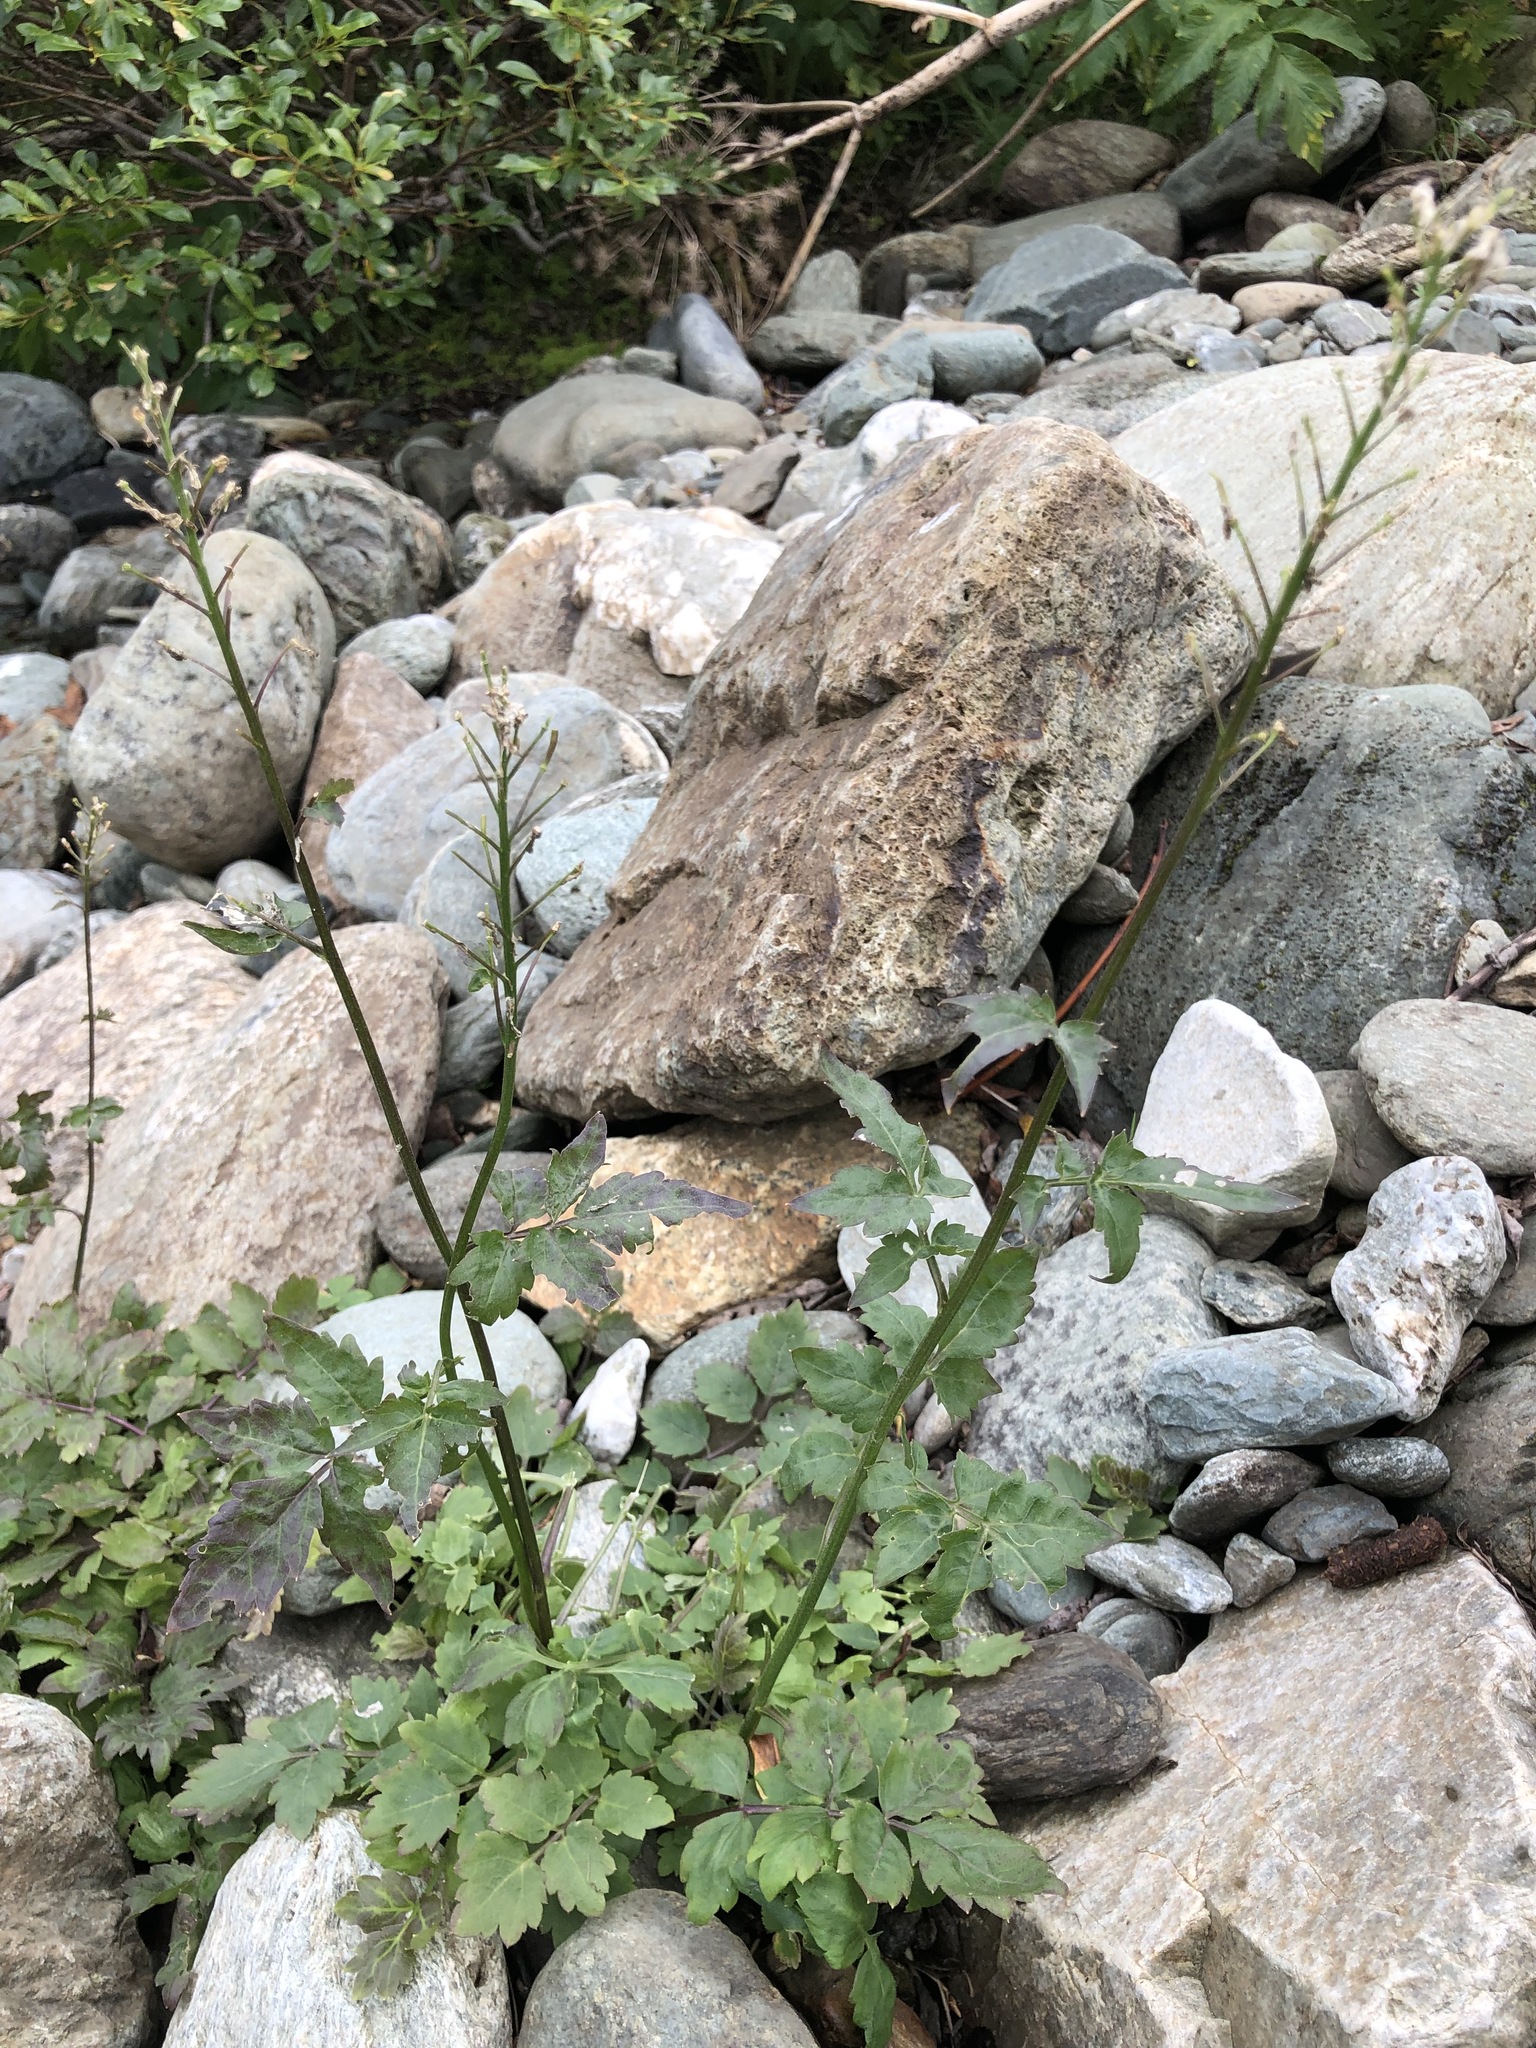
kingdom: Plantae
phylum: Tracheophyta
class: Magnoliopsida
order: Brassicales
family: Brassicaceae
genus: Cardamine
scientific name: Cardamine macrophylla
